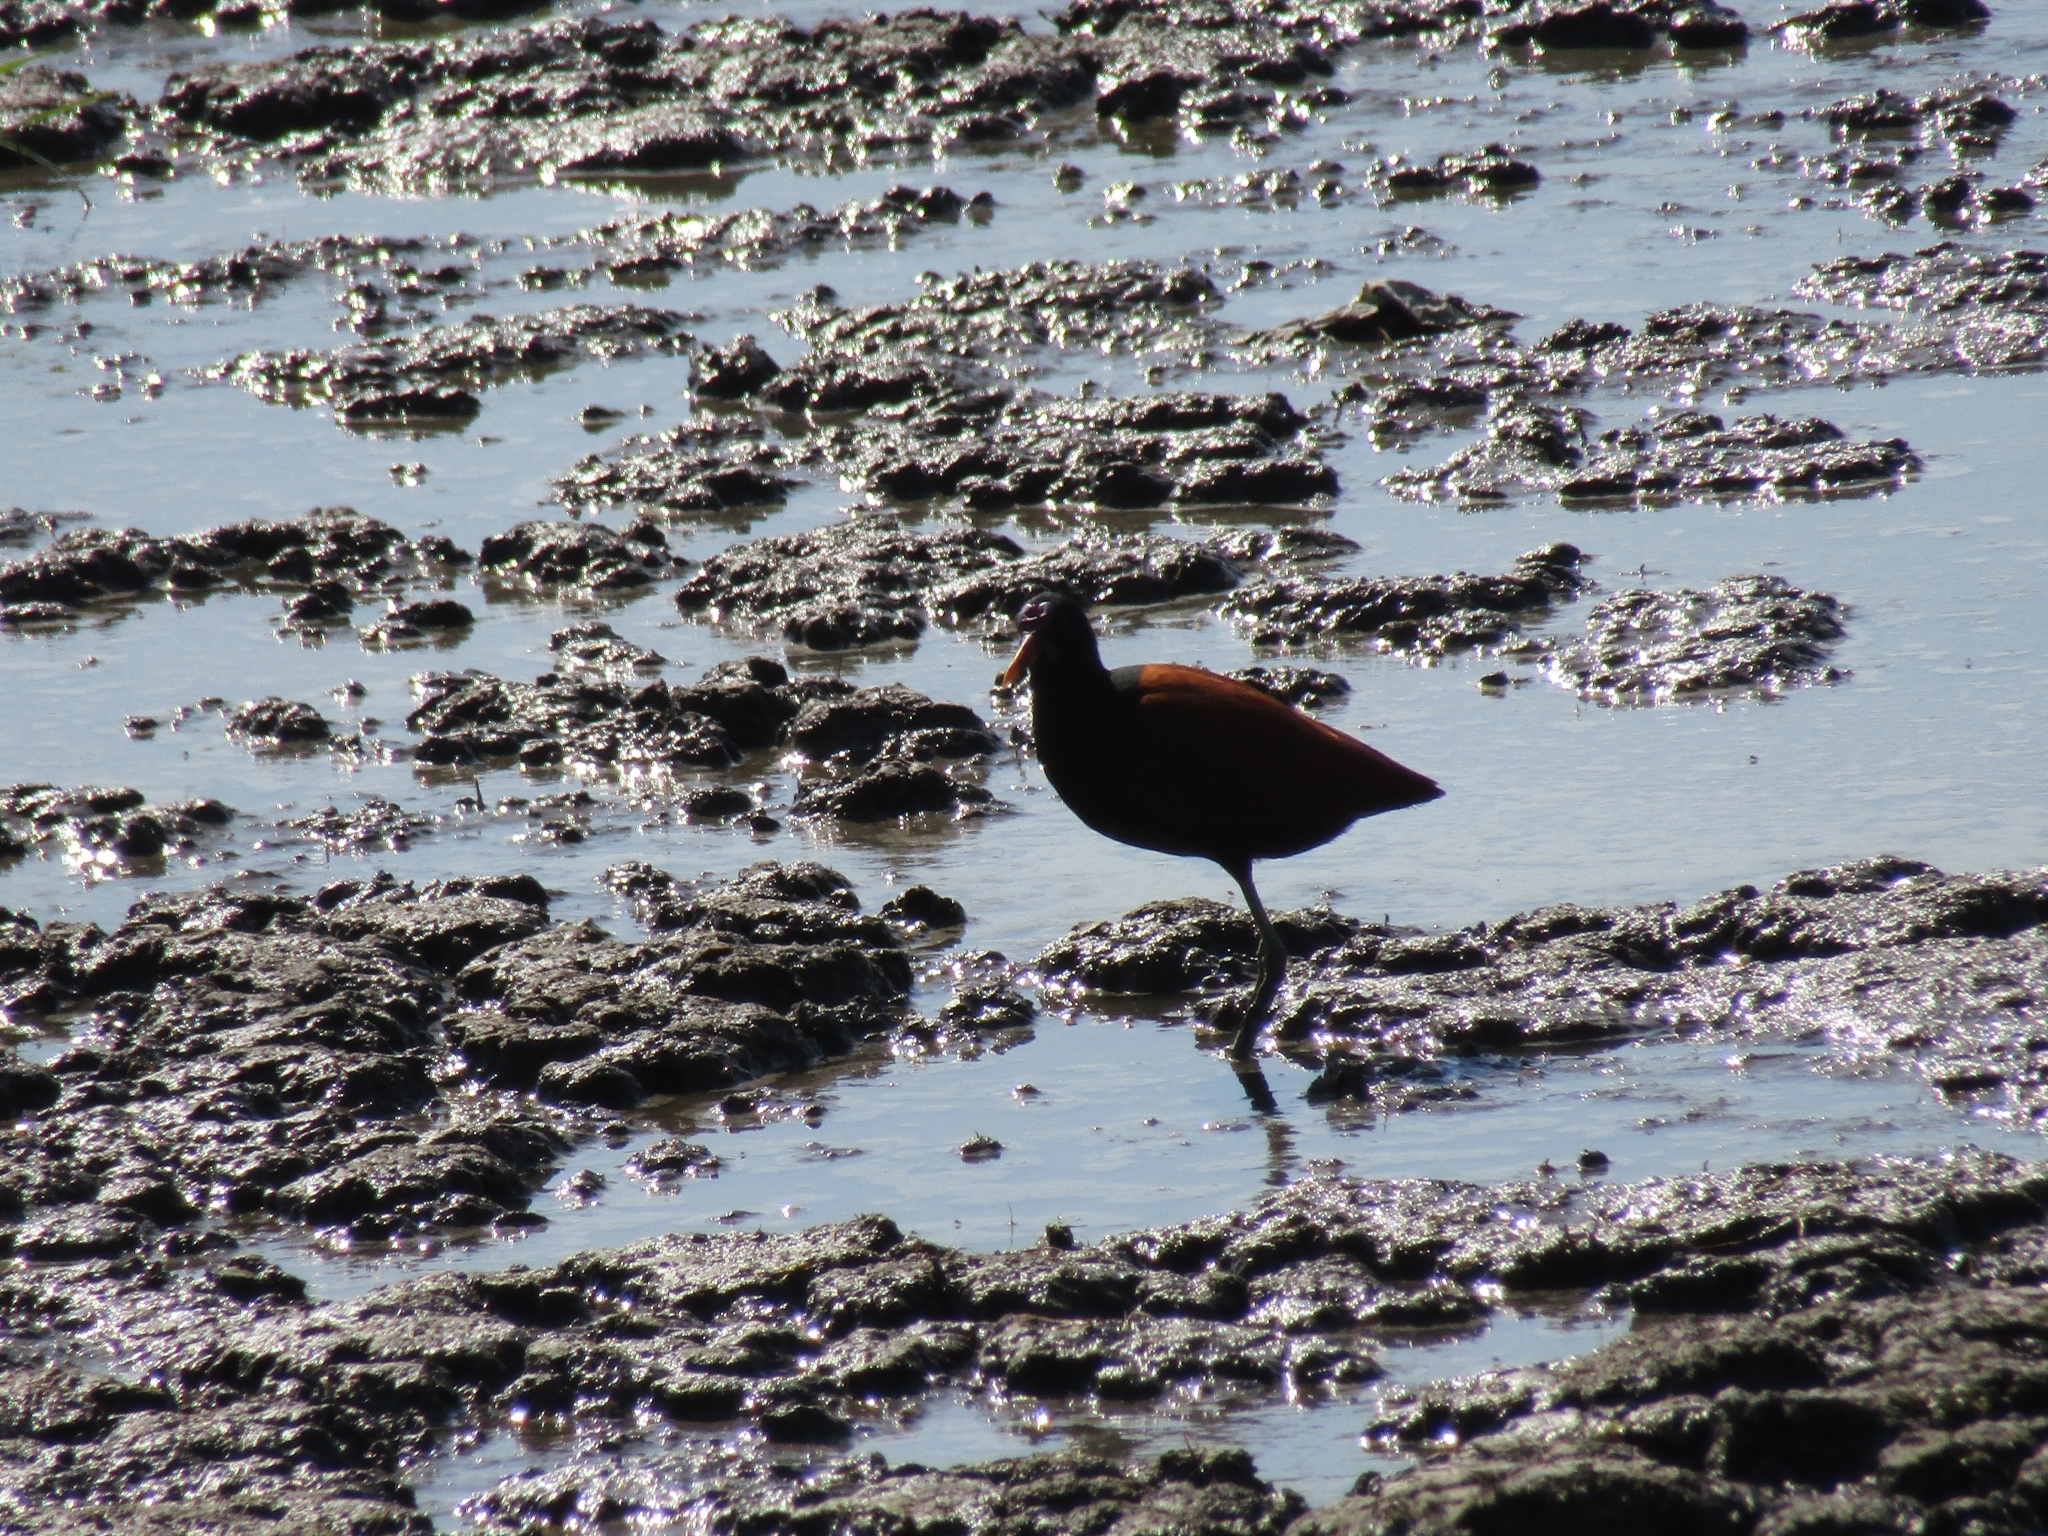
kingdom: Animalia
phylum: Chordata
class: Aves
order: Charadriiformes
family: Jacanidae
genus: Jacana
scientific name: Jacana jacana
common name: Wattled jacana
